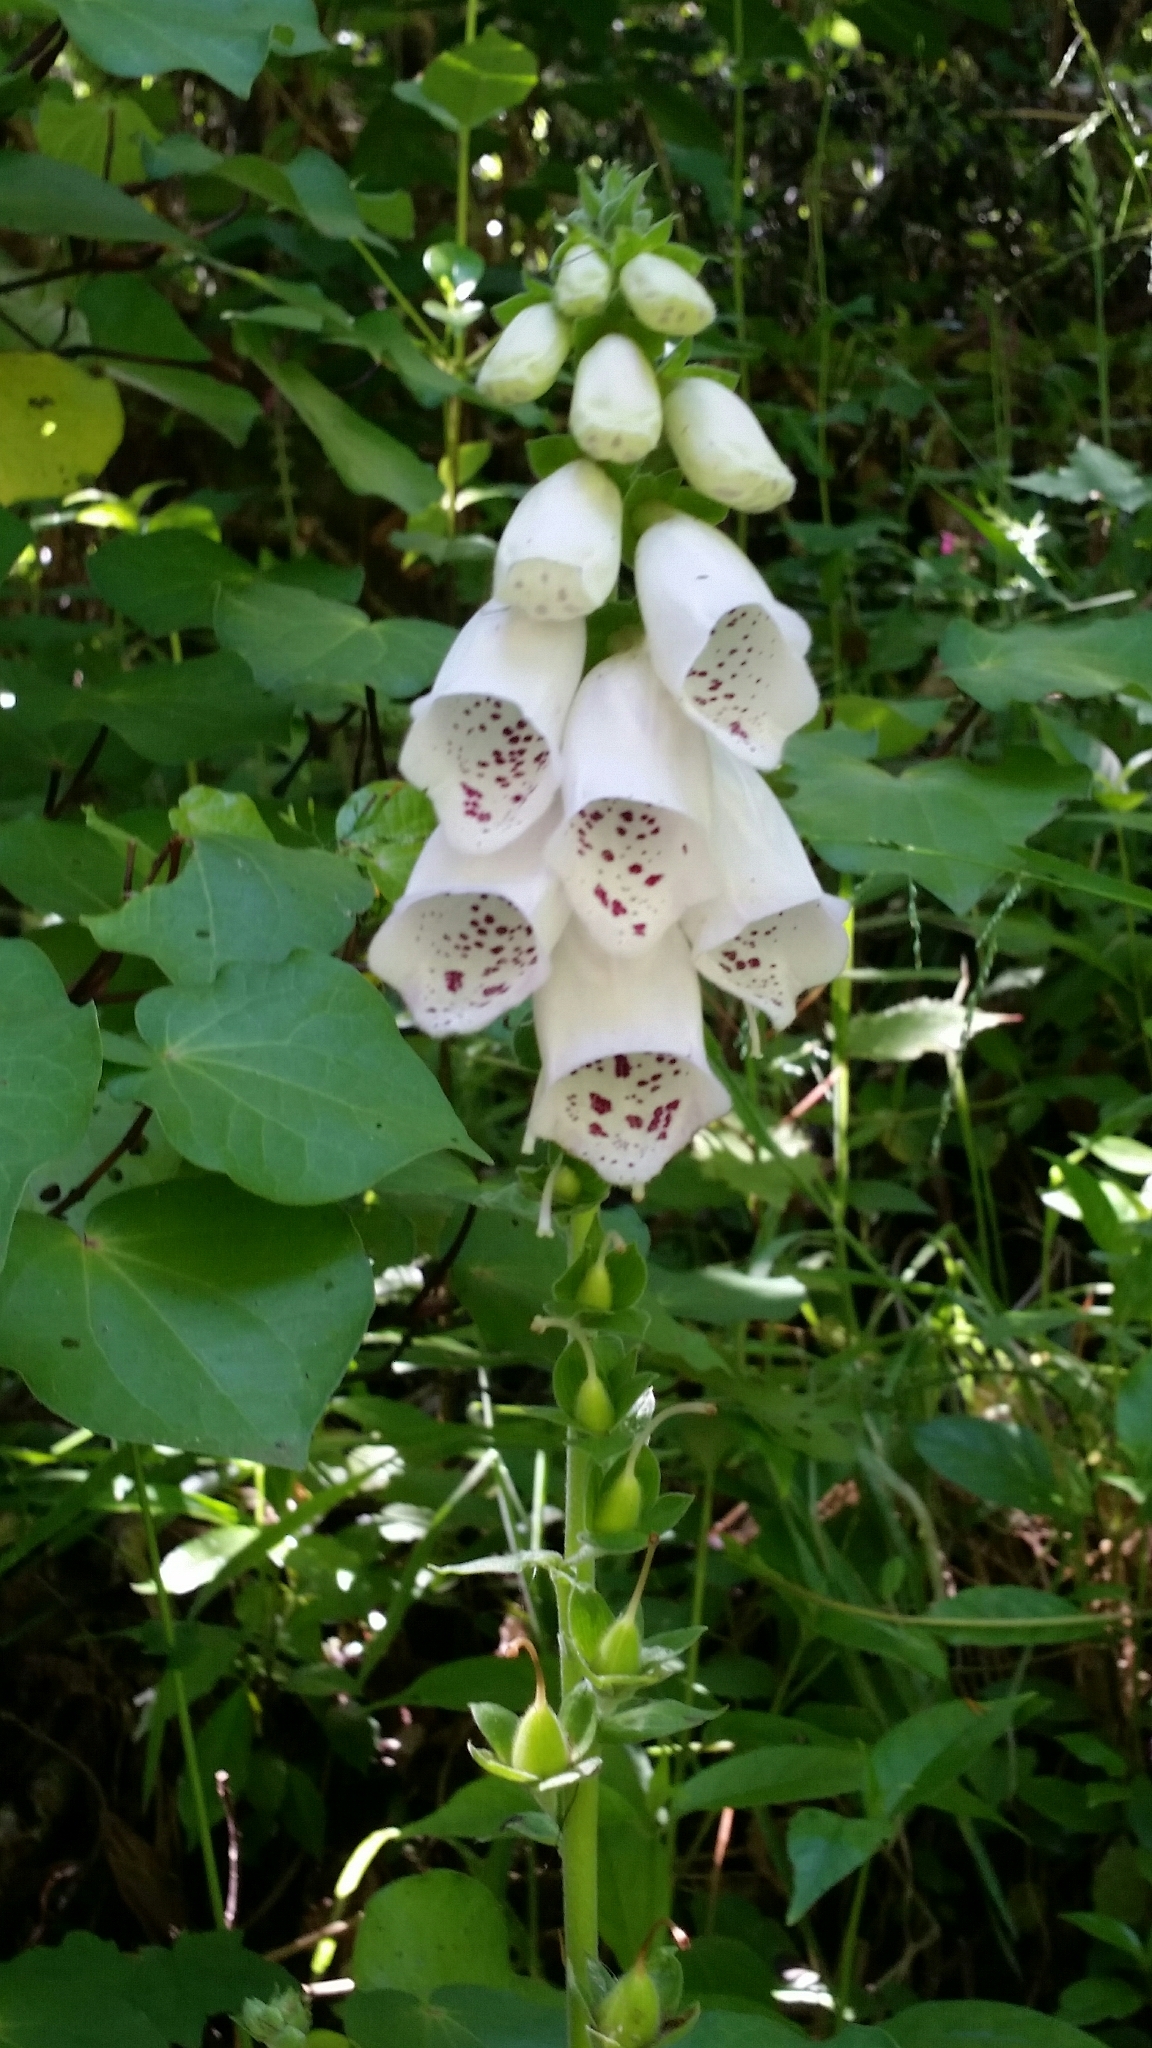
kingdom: Plantae
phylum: Tracheophyta
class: Magnoliopsida
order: Lamiales
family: Plantaginaceae
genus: Digitalis
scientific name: Digitalis purpurea
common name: Foxglove
